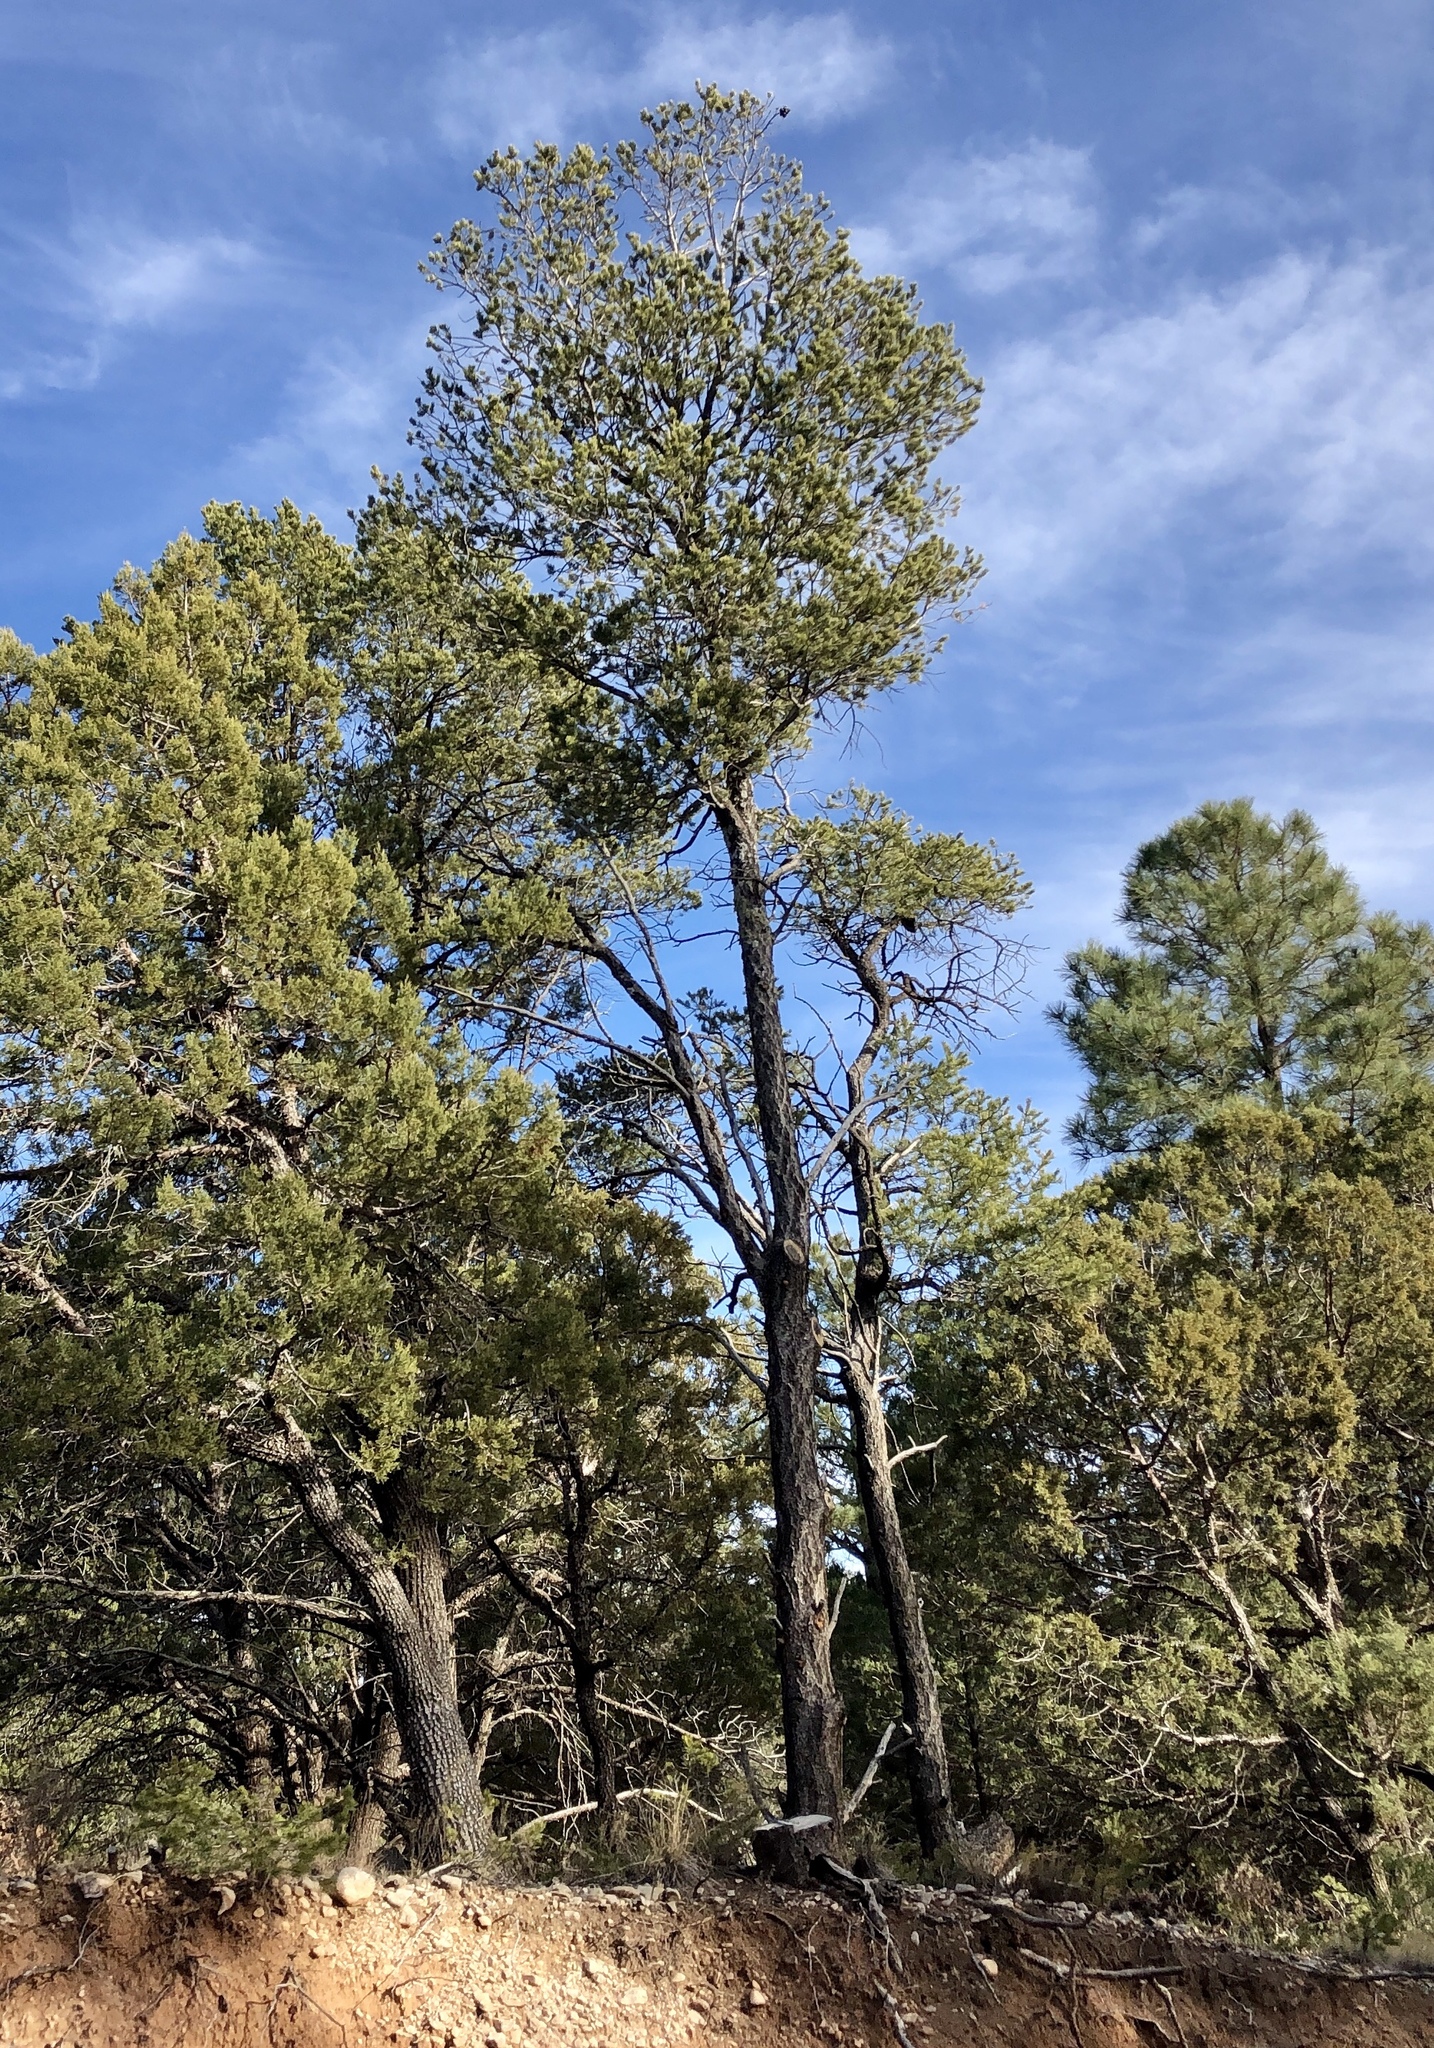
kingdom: Plantae
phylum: Tracheophyta
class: Pinopsida
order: Pinales
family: Pinaceae
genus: Pinus
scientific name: Pinus edulis
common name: Colorado pinyon
